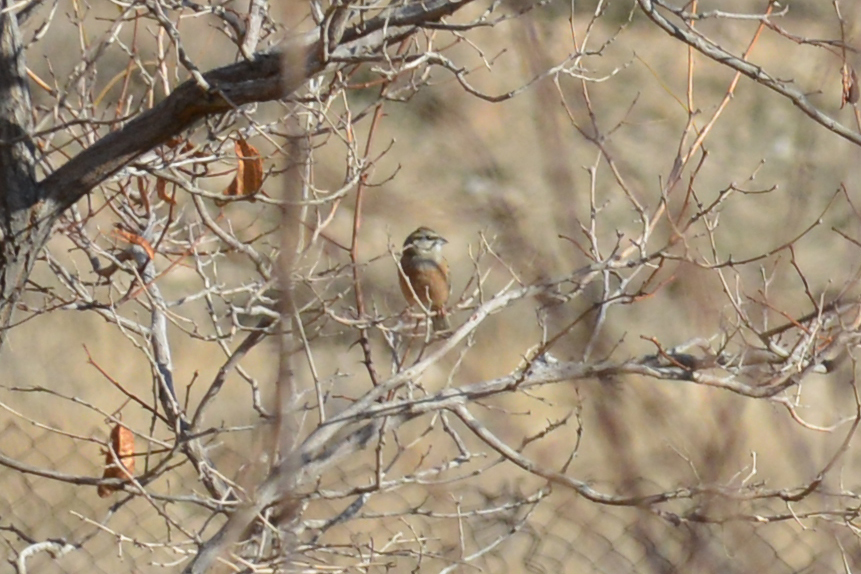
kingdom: Animalia
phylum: Chordata
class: Aves
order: Passeriformes
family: Emberizidae
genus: Emberiza
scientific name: Emberiza cia
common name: Rock bunting
